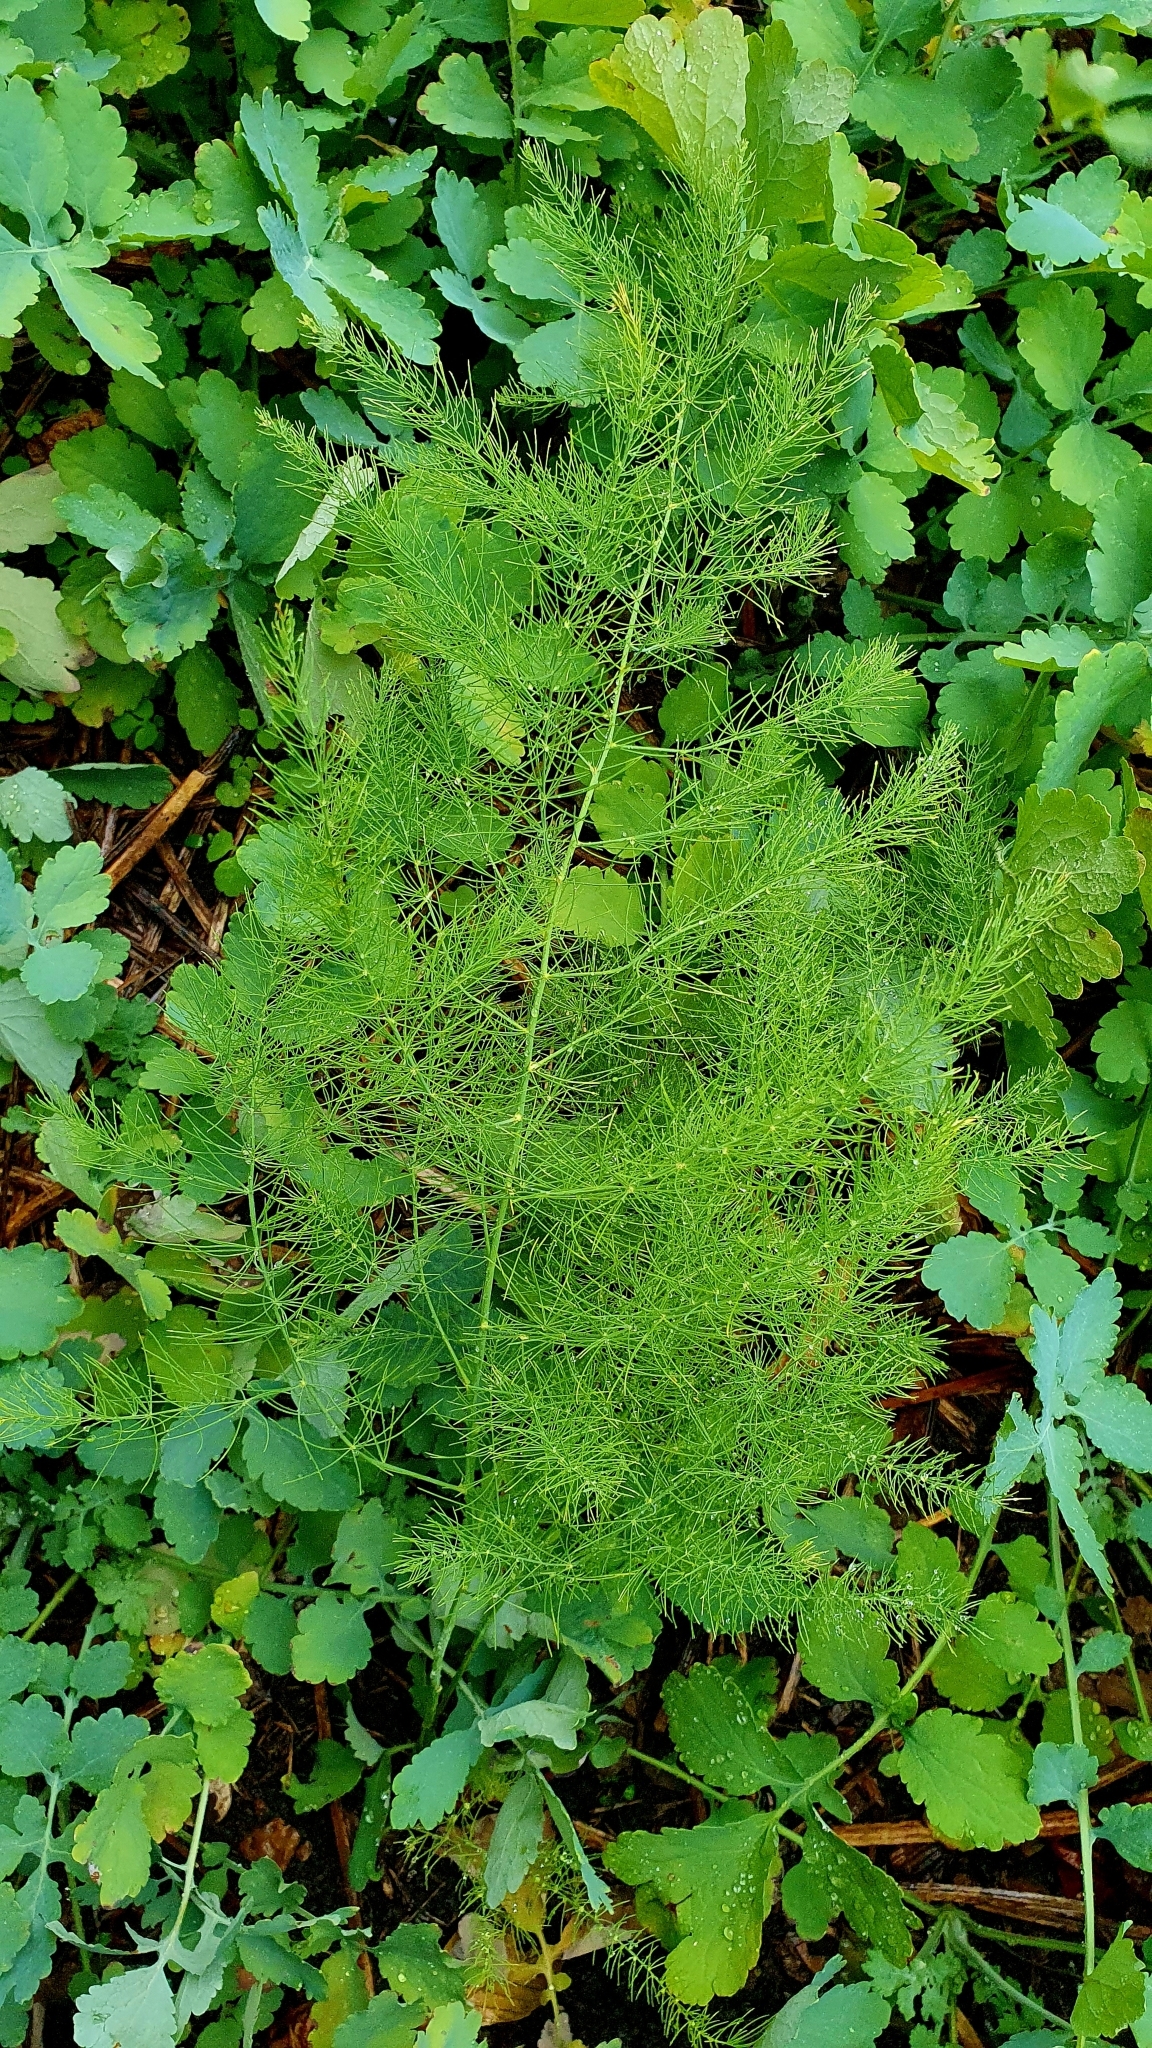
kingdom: Plantae
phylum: Tracheophyta
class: Liliopsida
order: Asparagales
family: Asparagaceae
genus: Asparagus
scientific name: Asparagus officinalis
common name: Garden asparagus
